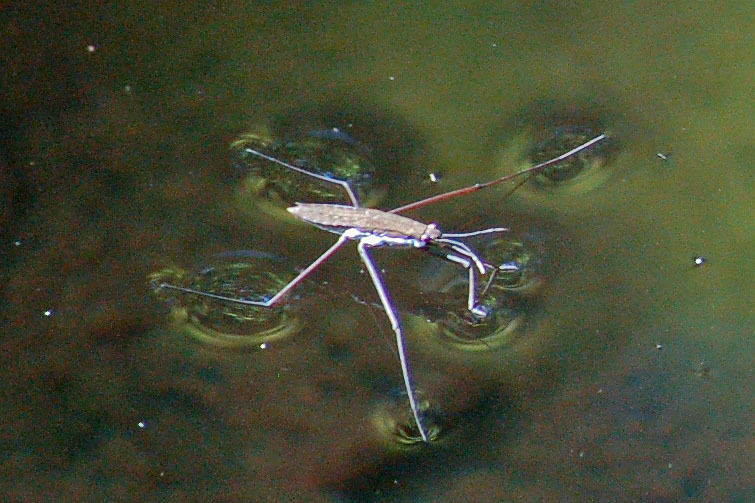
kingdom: Animalia
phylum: Arthropoda
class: Insecta
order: Hemiptera
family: Gerridae
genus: Aquarius
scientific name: Aquarius
